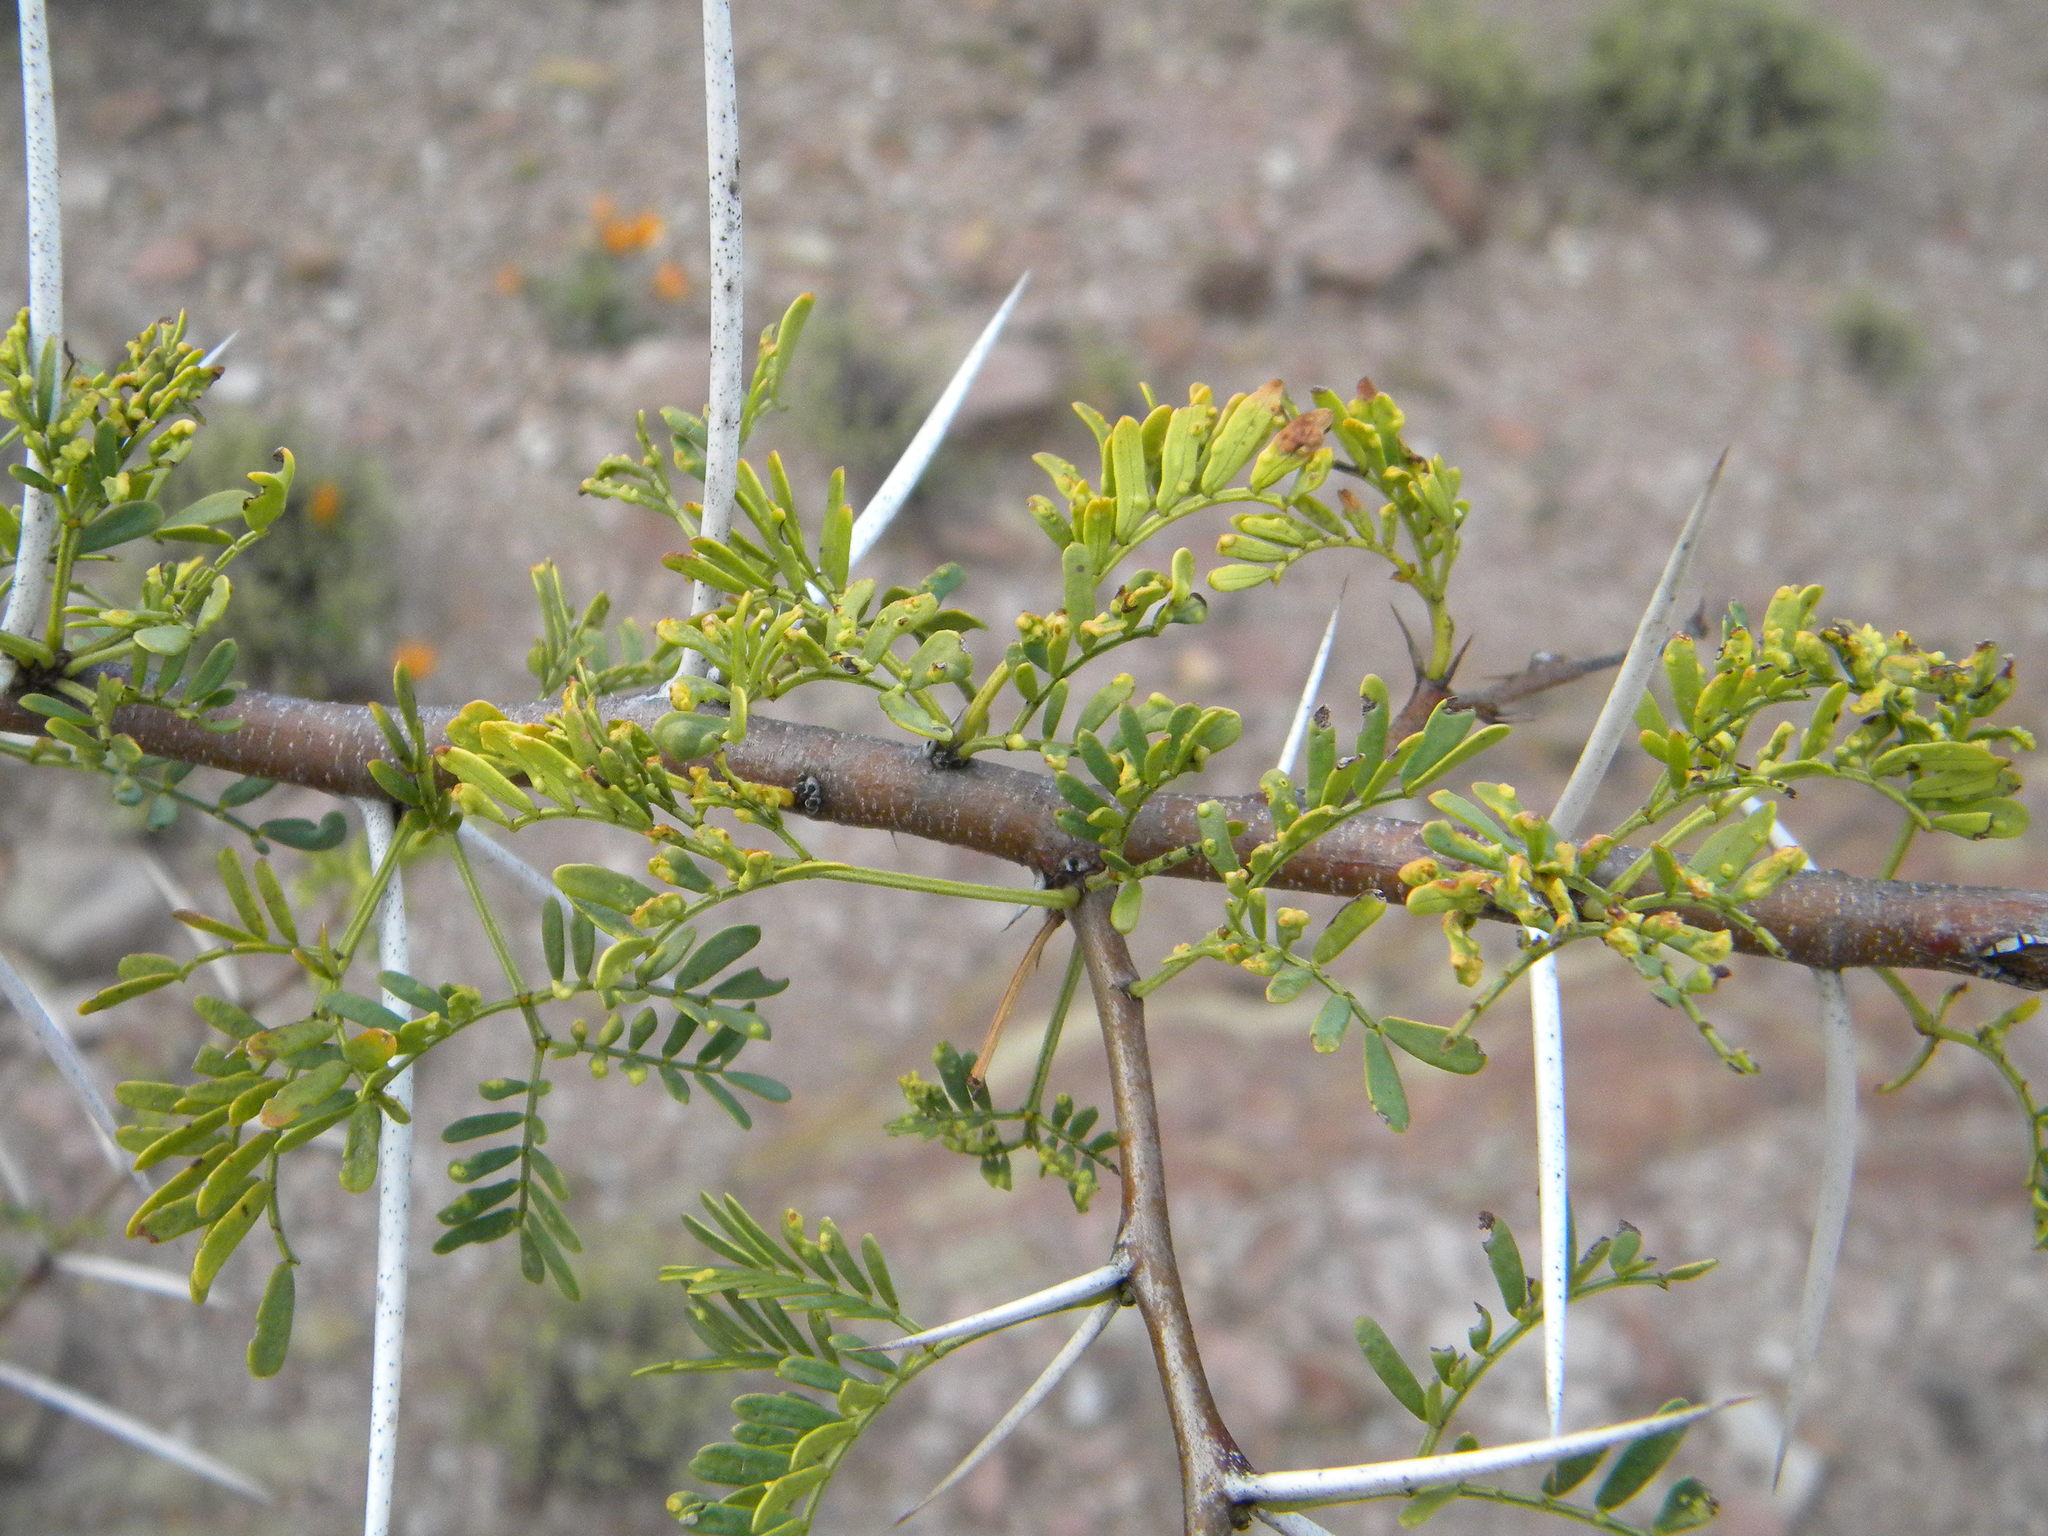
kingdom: Plantae
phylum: Tracheophyta
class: Magnoliopsida
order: Fabales
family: Fabaceae
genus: Vachellia
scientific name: Vachellia karroo
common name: Sweet thorn
